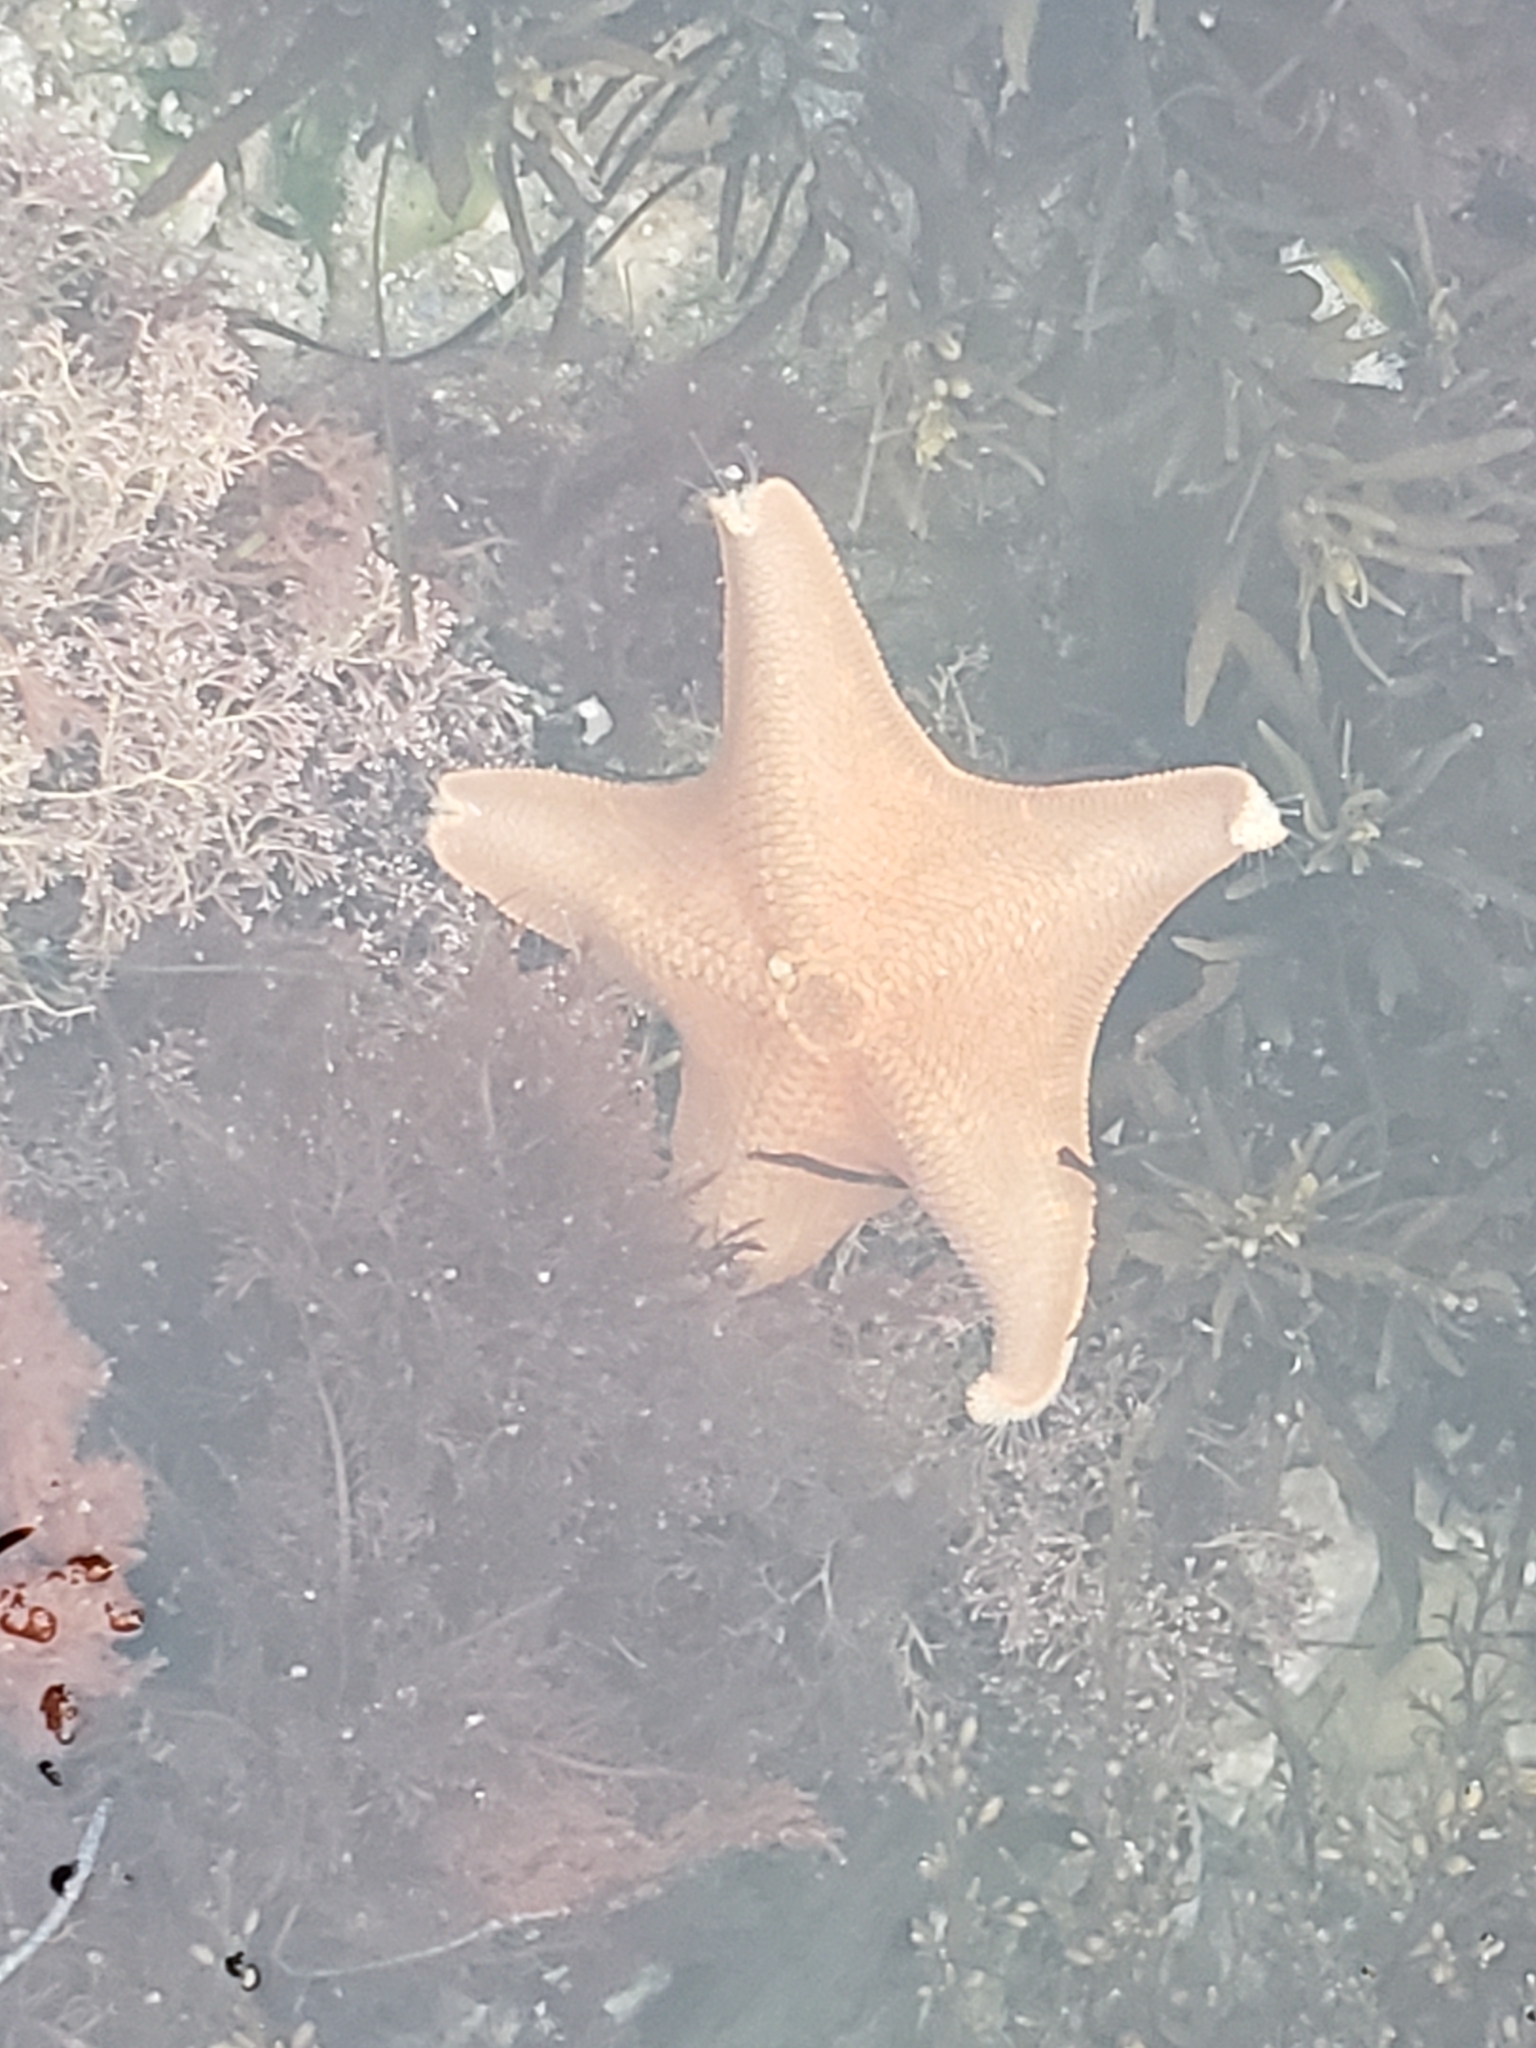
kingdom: Animalia
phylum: Echinodermata
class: Asteroidea
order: Valvatida
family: Asterinidae
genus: Patiria
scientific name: Patiria miniata
